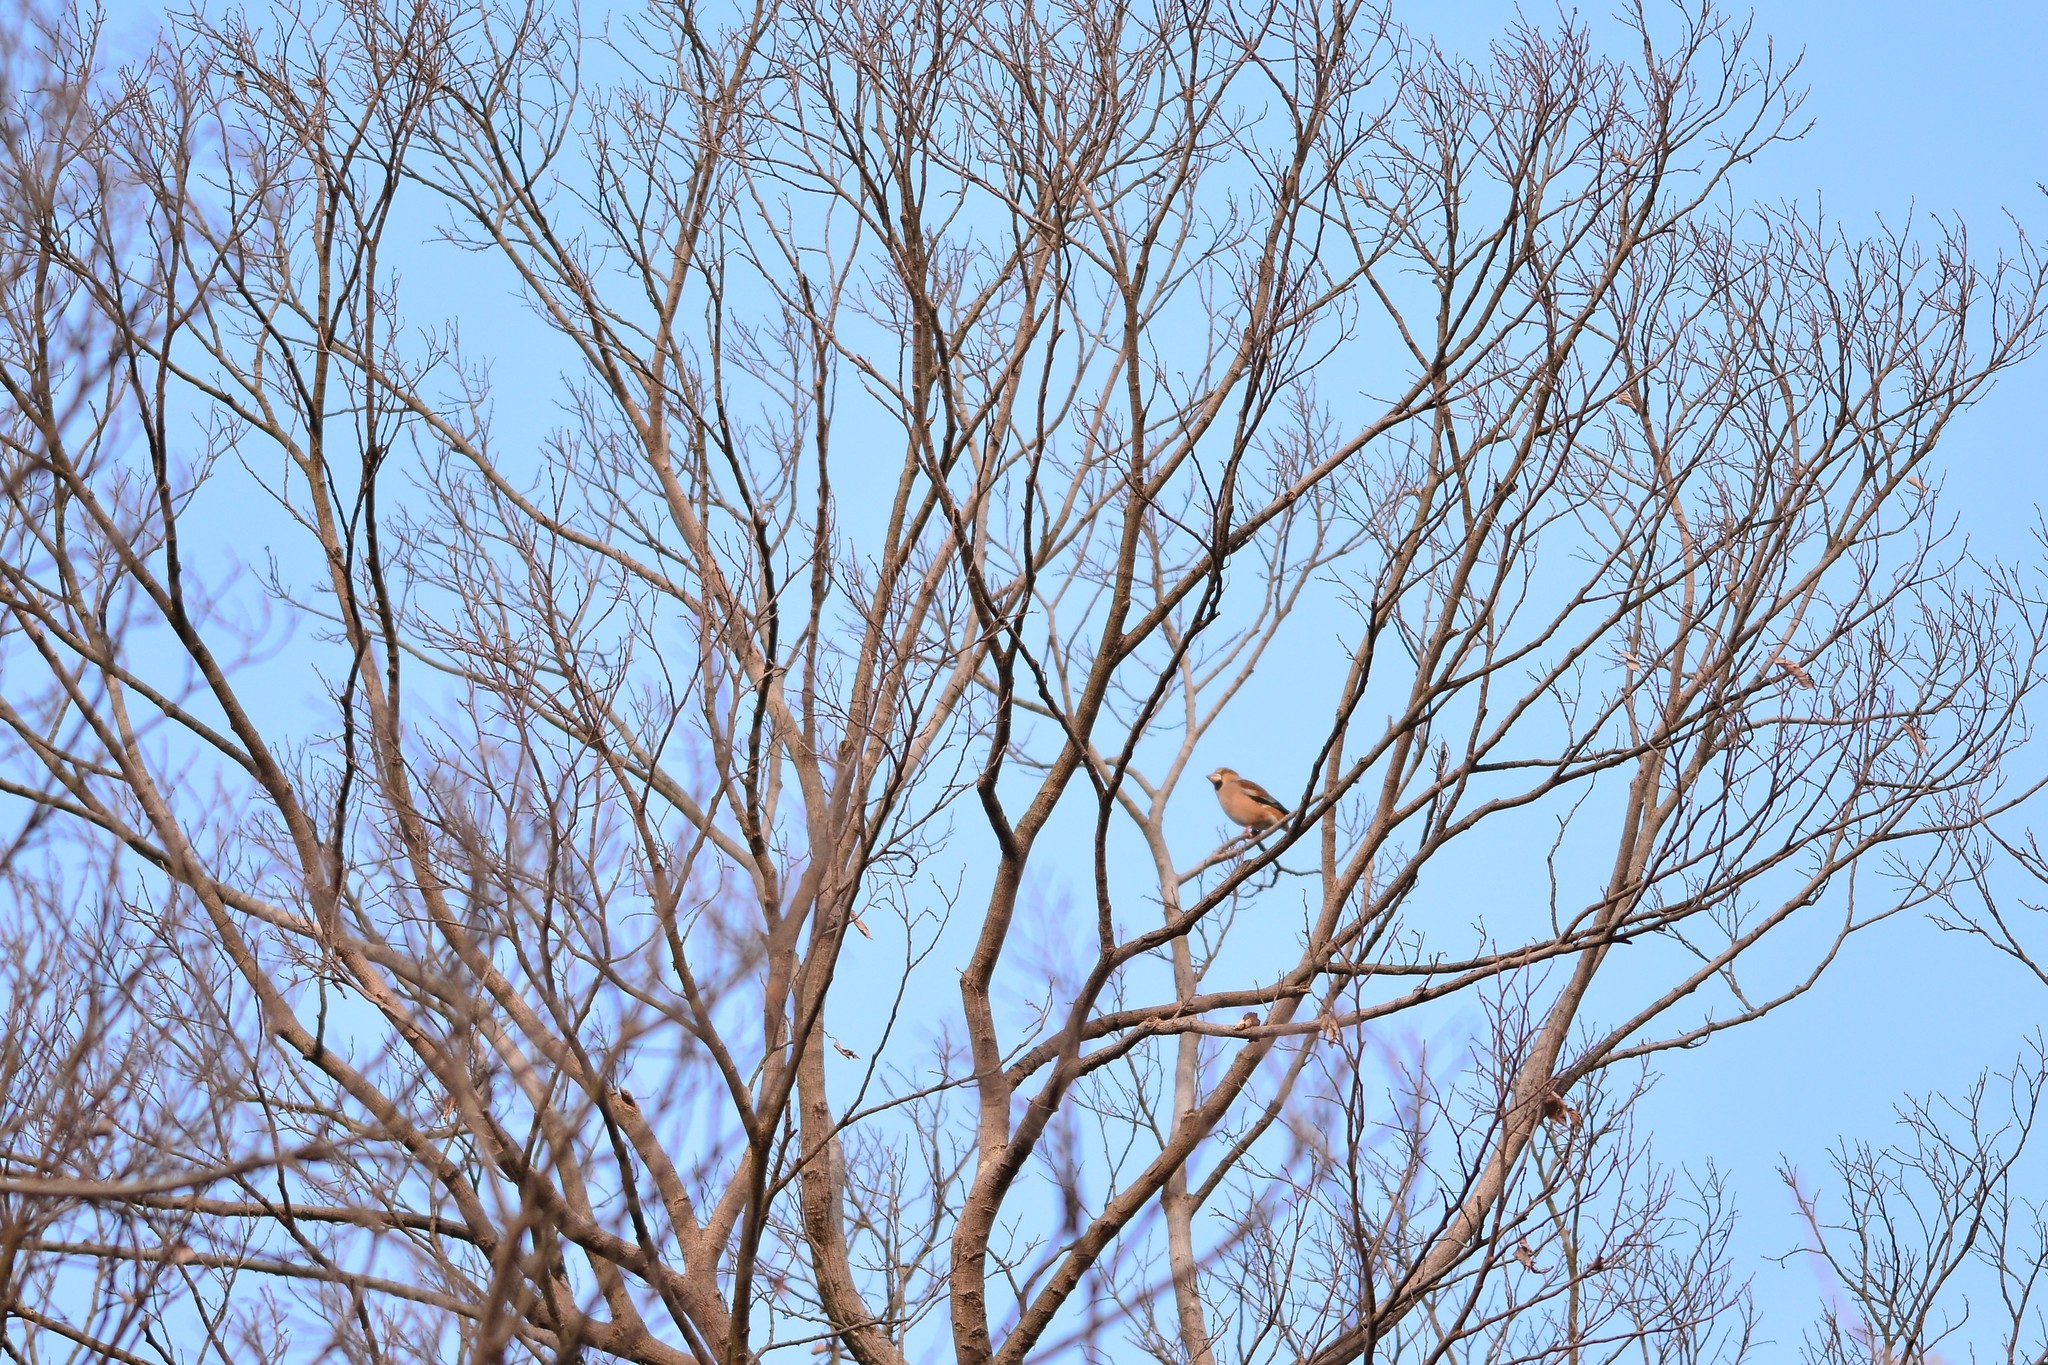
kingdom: Animalia
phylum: Chordata
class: Aves
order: Passeriformes
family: Fringillidae
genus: Coccothraustes
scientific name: Coccothraustes coccothraustes
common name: Hawfinch
